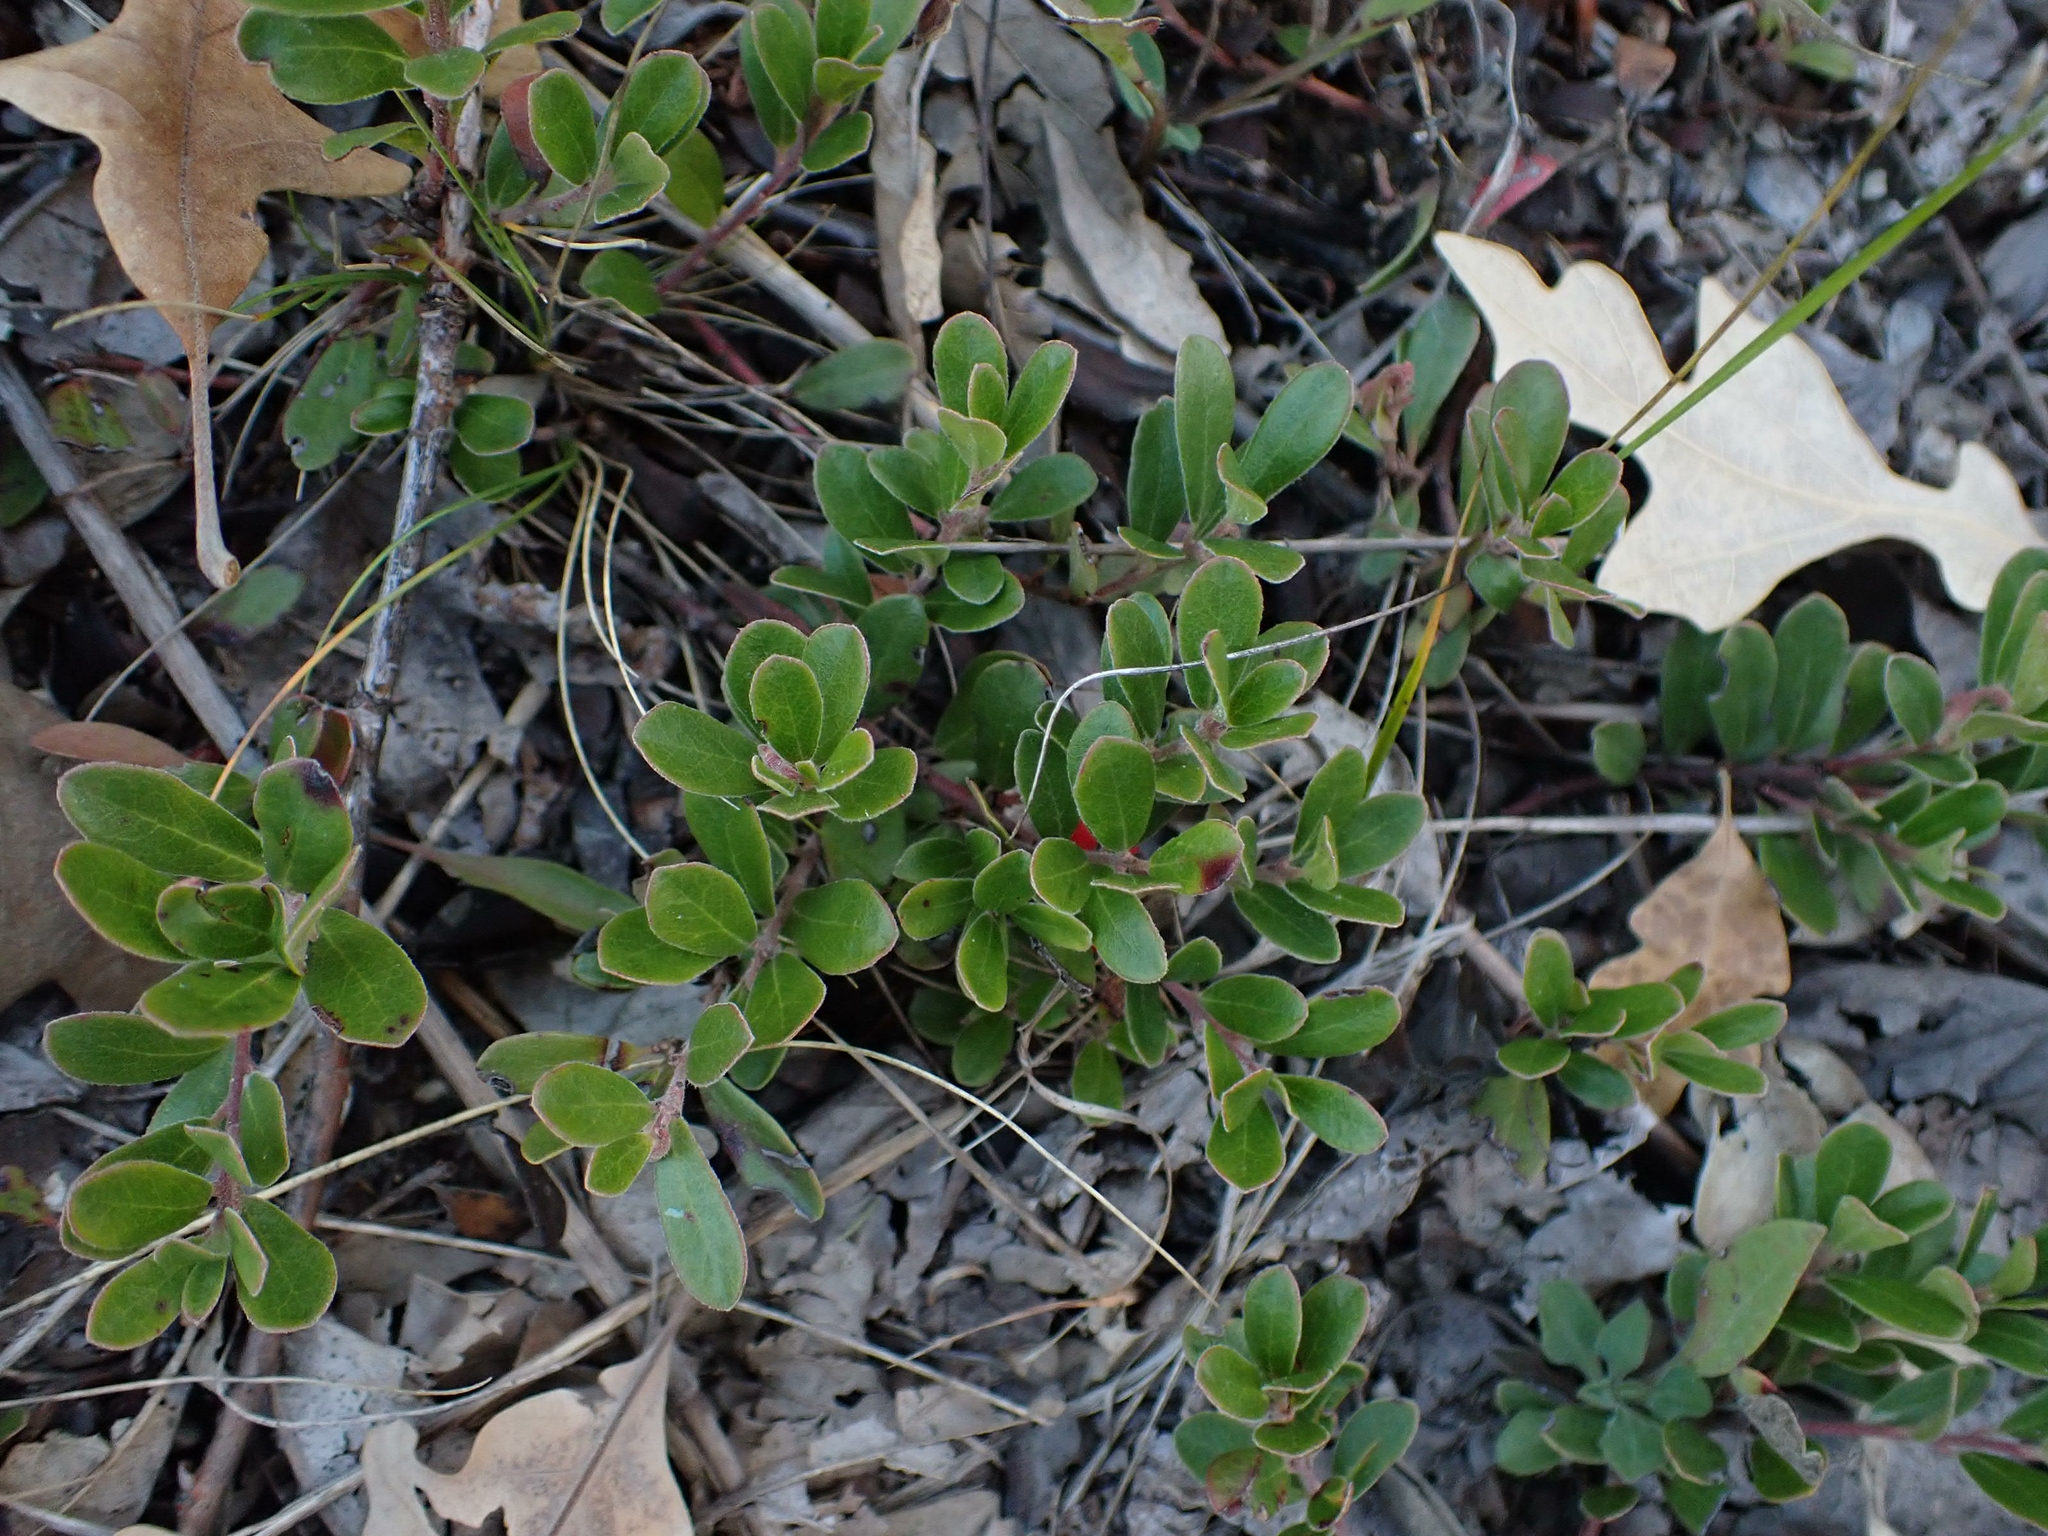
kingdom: Plantae
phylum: Tracheophyta
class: Magnoliopsida
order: Ericales
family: Ericaceae
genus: Arctostaphylos
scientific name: Arctostaphylos uva-ursi
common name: Bearberry
